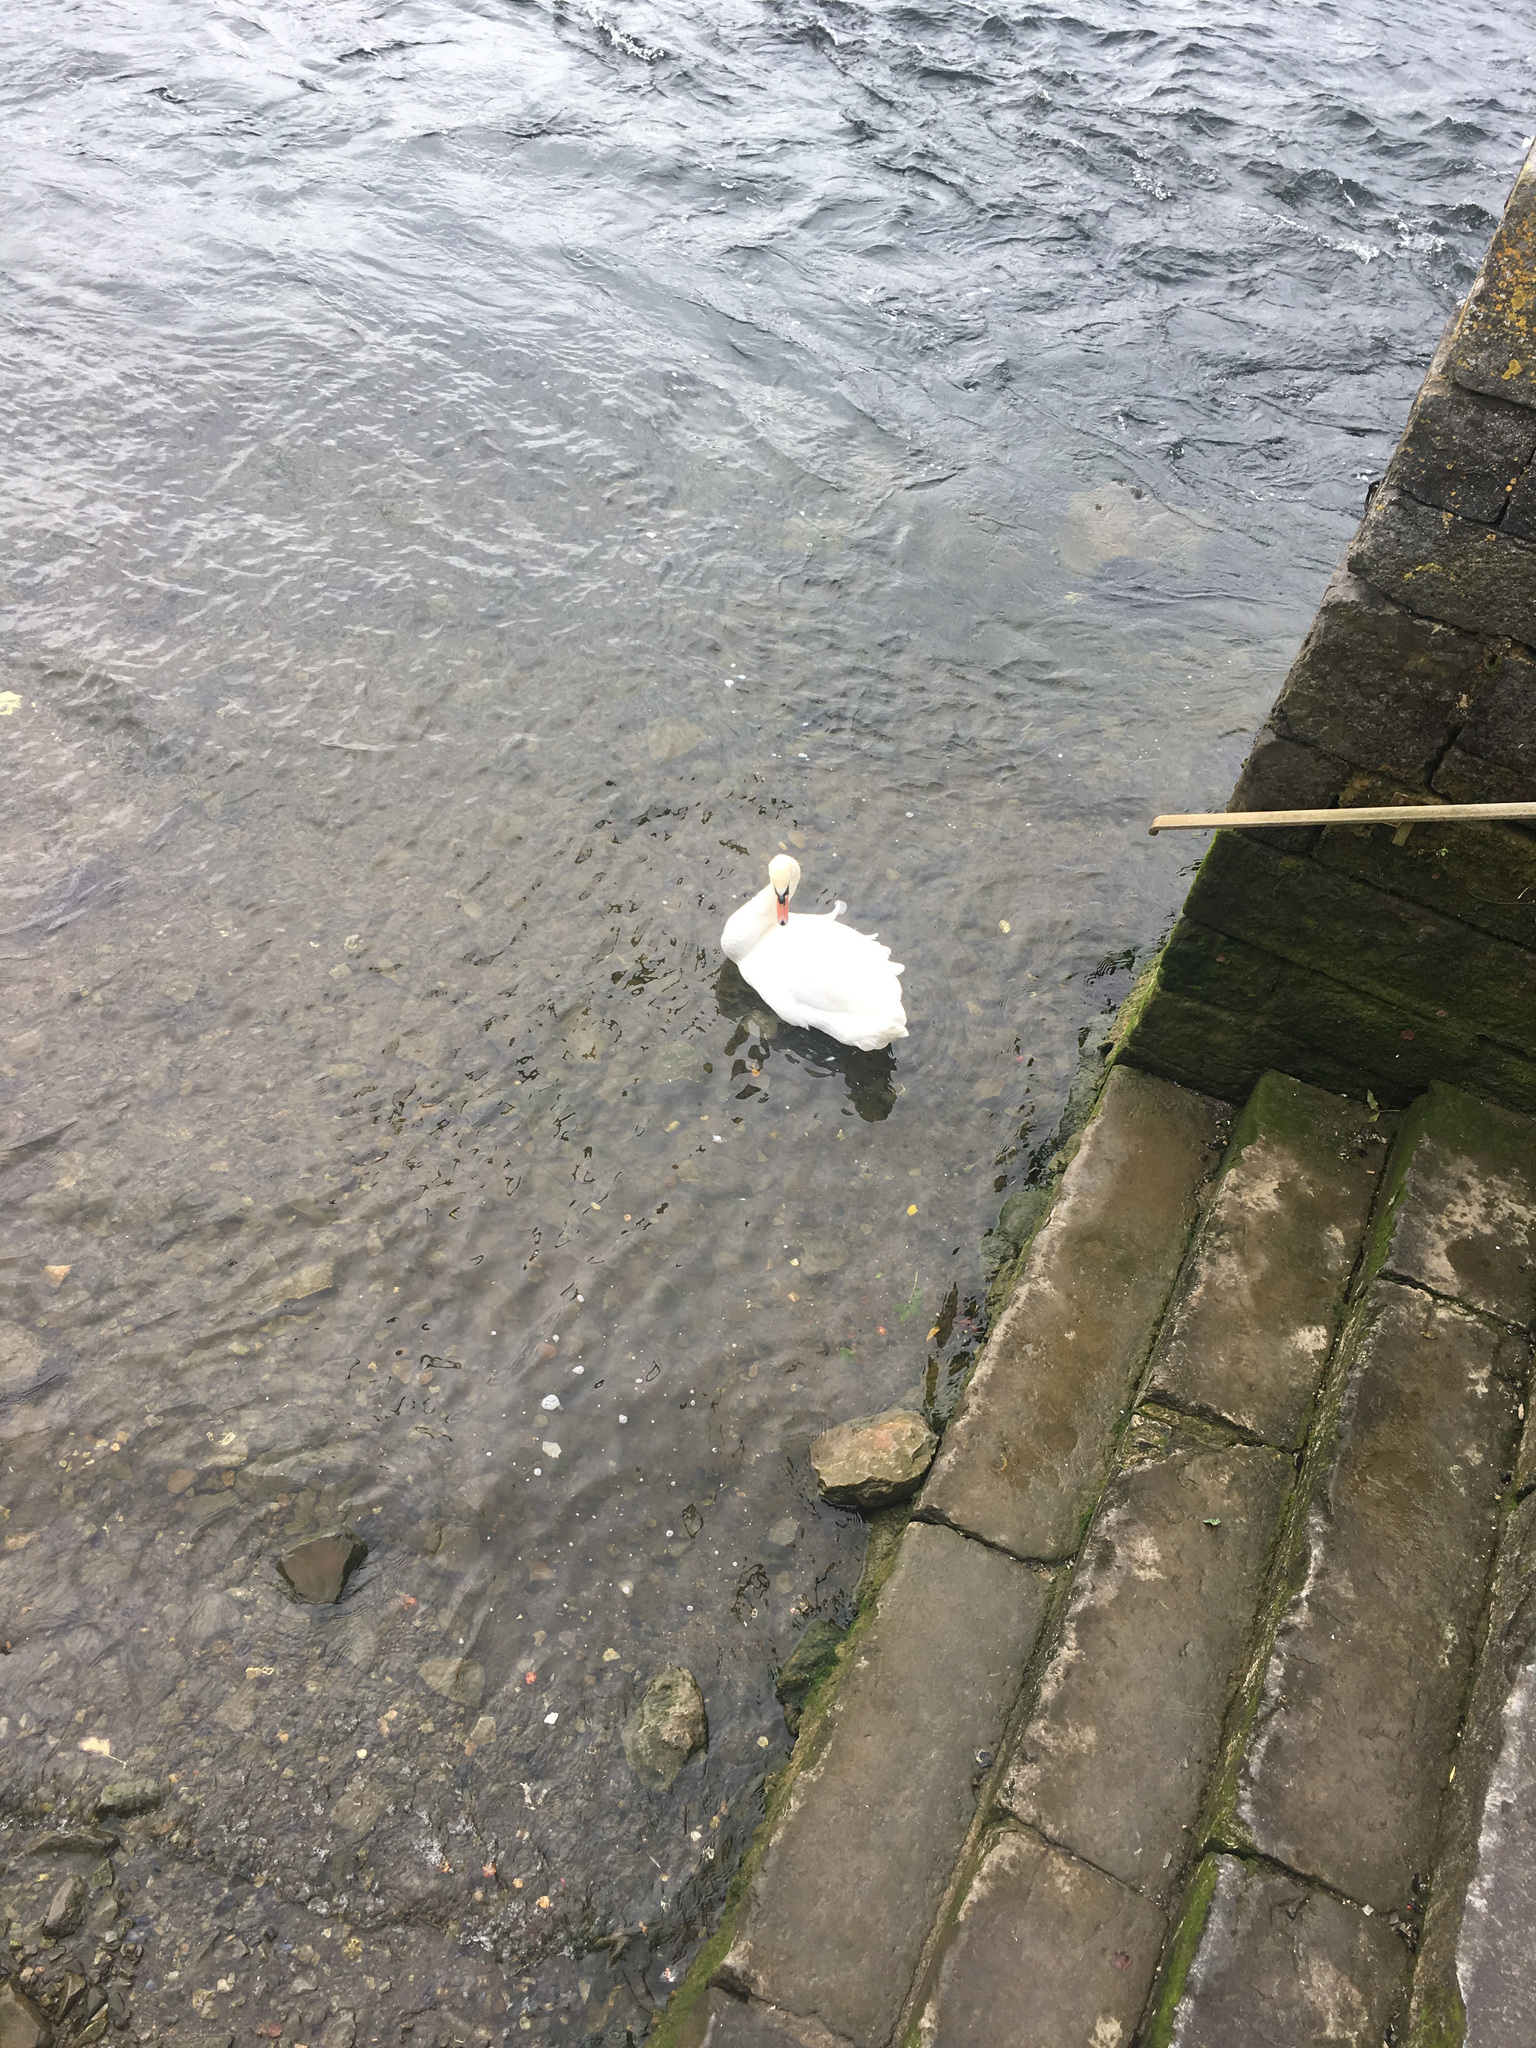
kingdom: Animalia
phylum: Chordata
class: Aves
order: Anseriformes
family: Anatidae
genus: Cygnus
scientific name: Cygnus olor
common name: Mute swan
